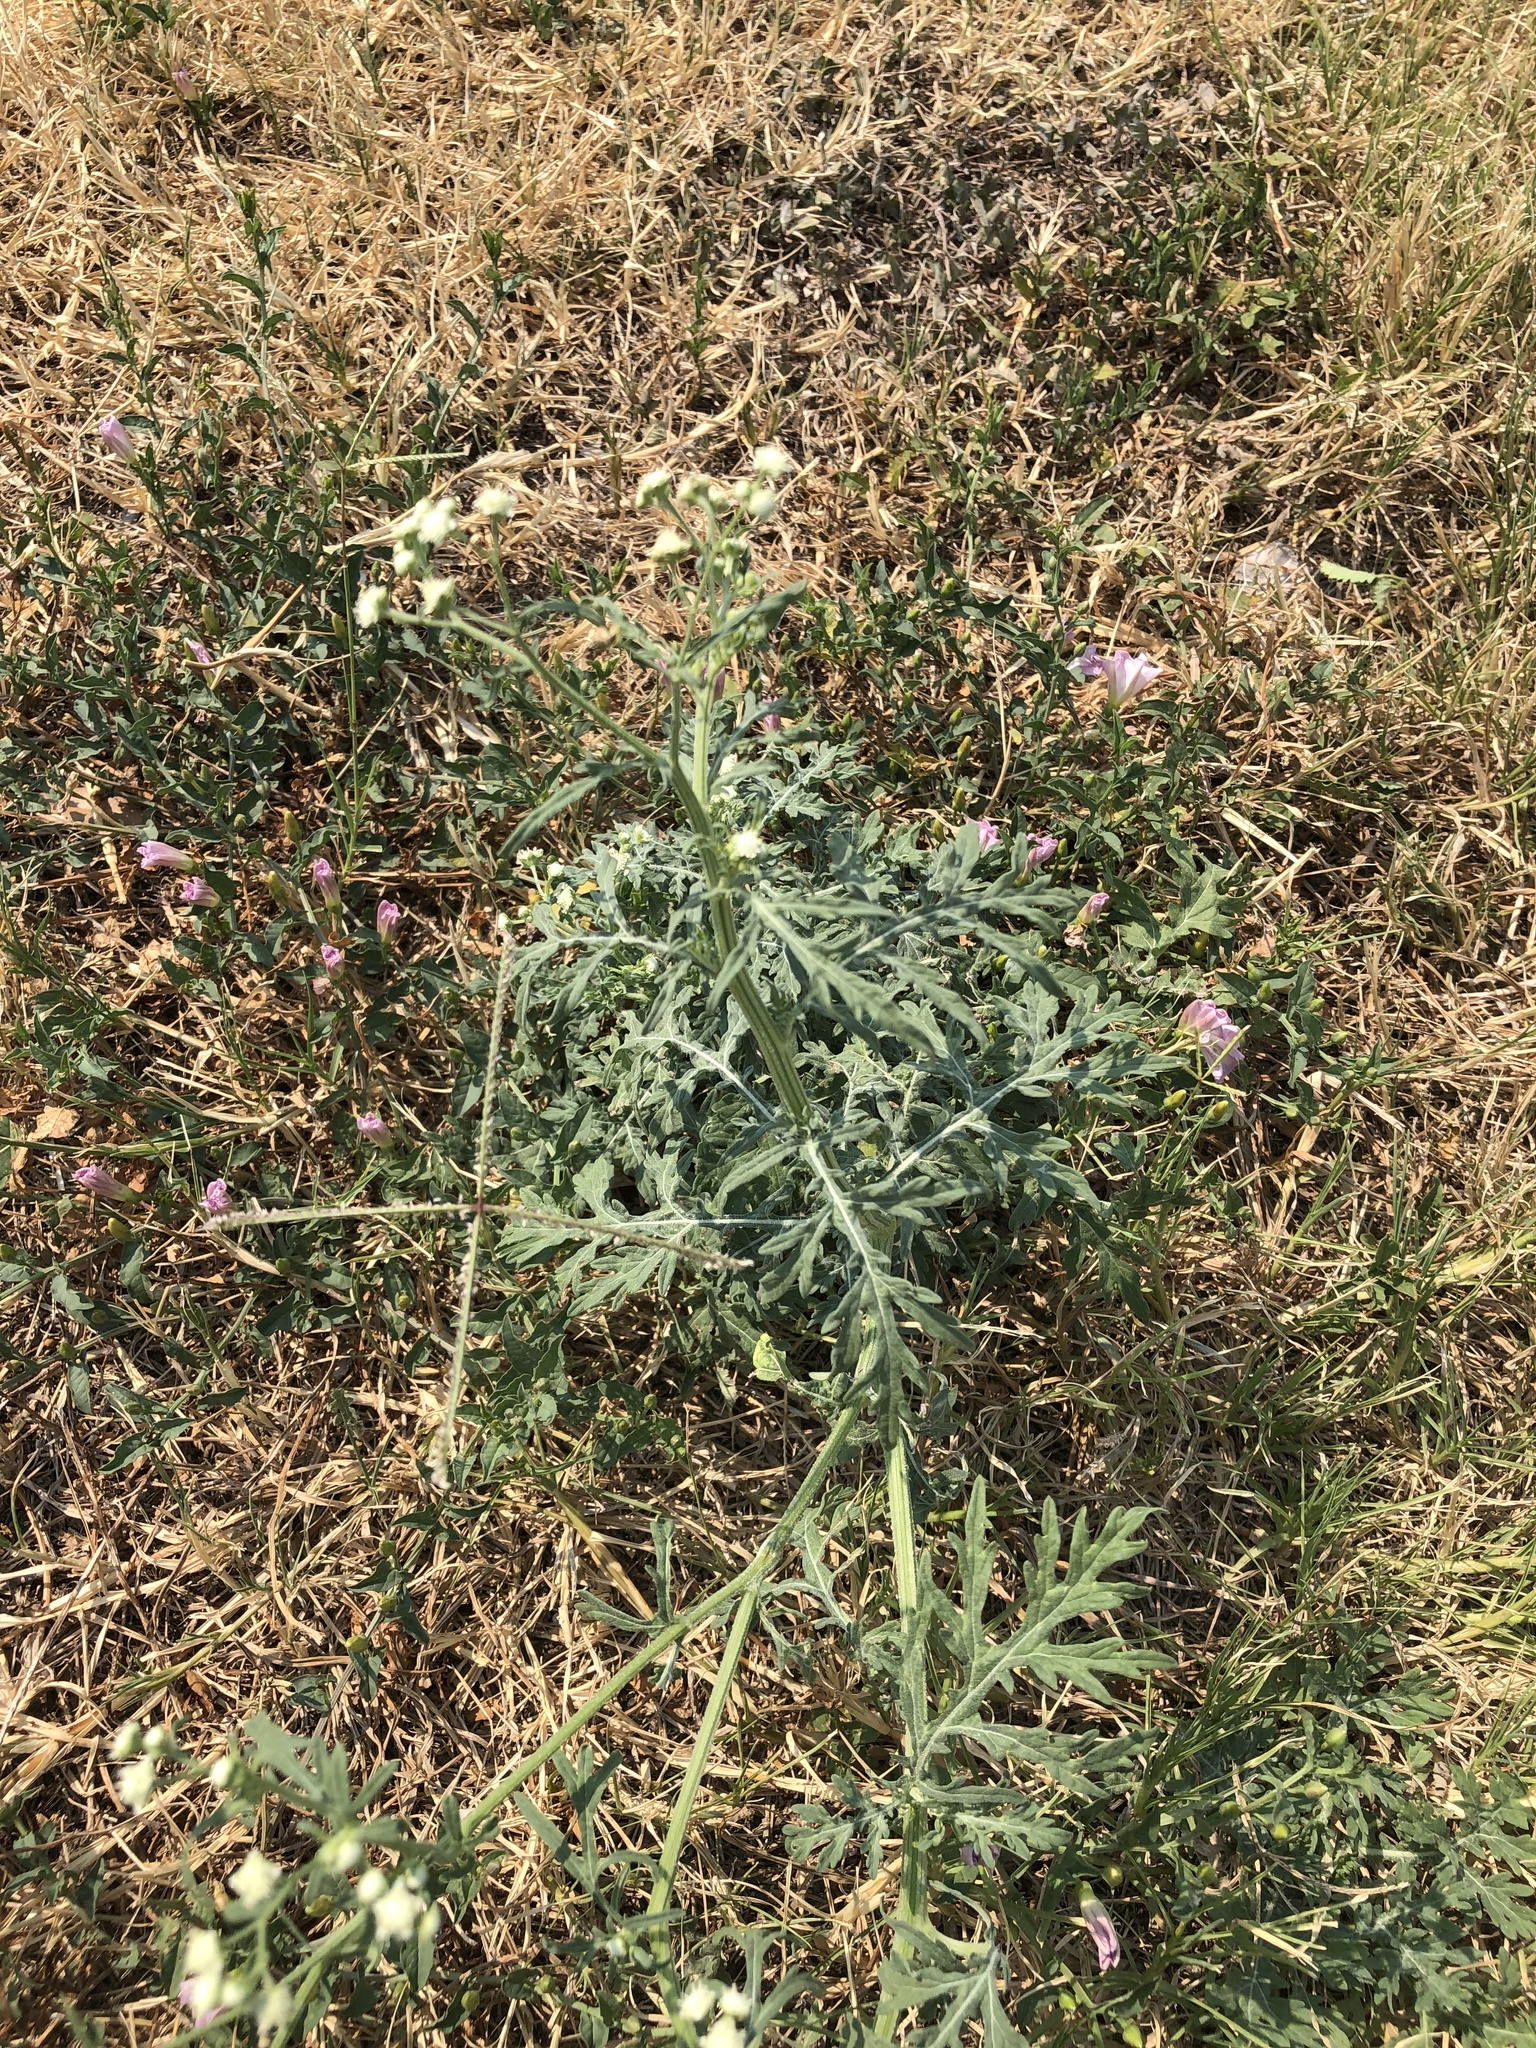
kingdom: Plantae
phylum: Tracheophyta
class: Magnoliopsida
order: Asterales
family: Asteraceae
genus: Parthenium
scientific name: Parthenium hysterophorus
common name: Santa maria feverfew
